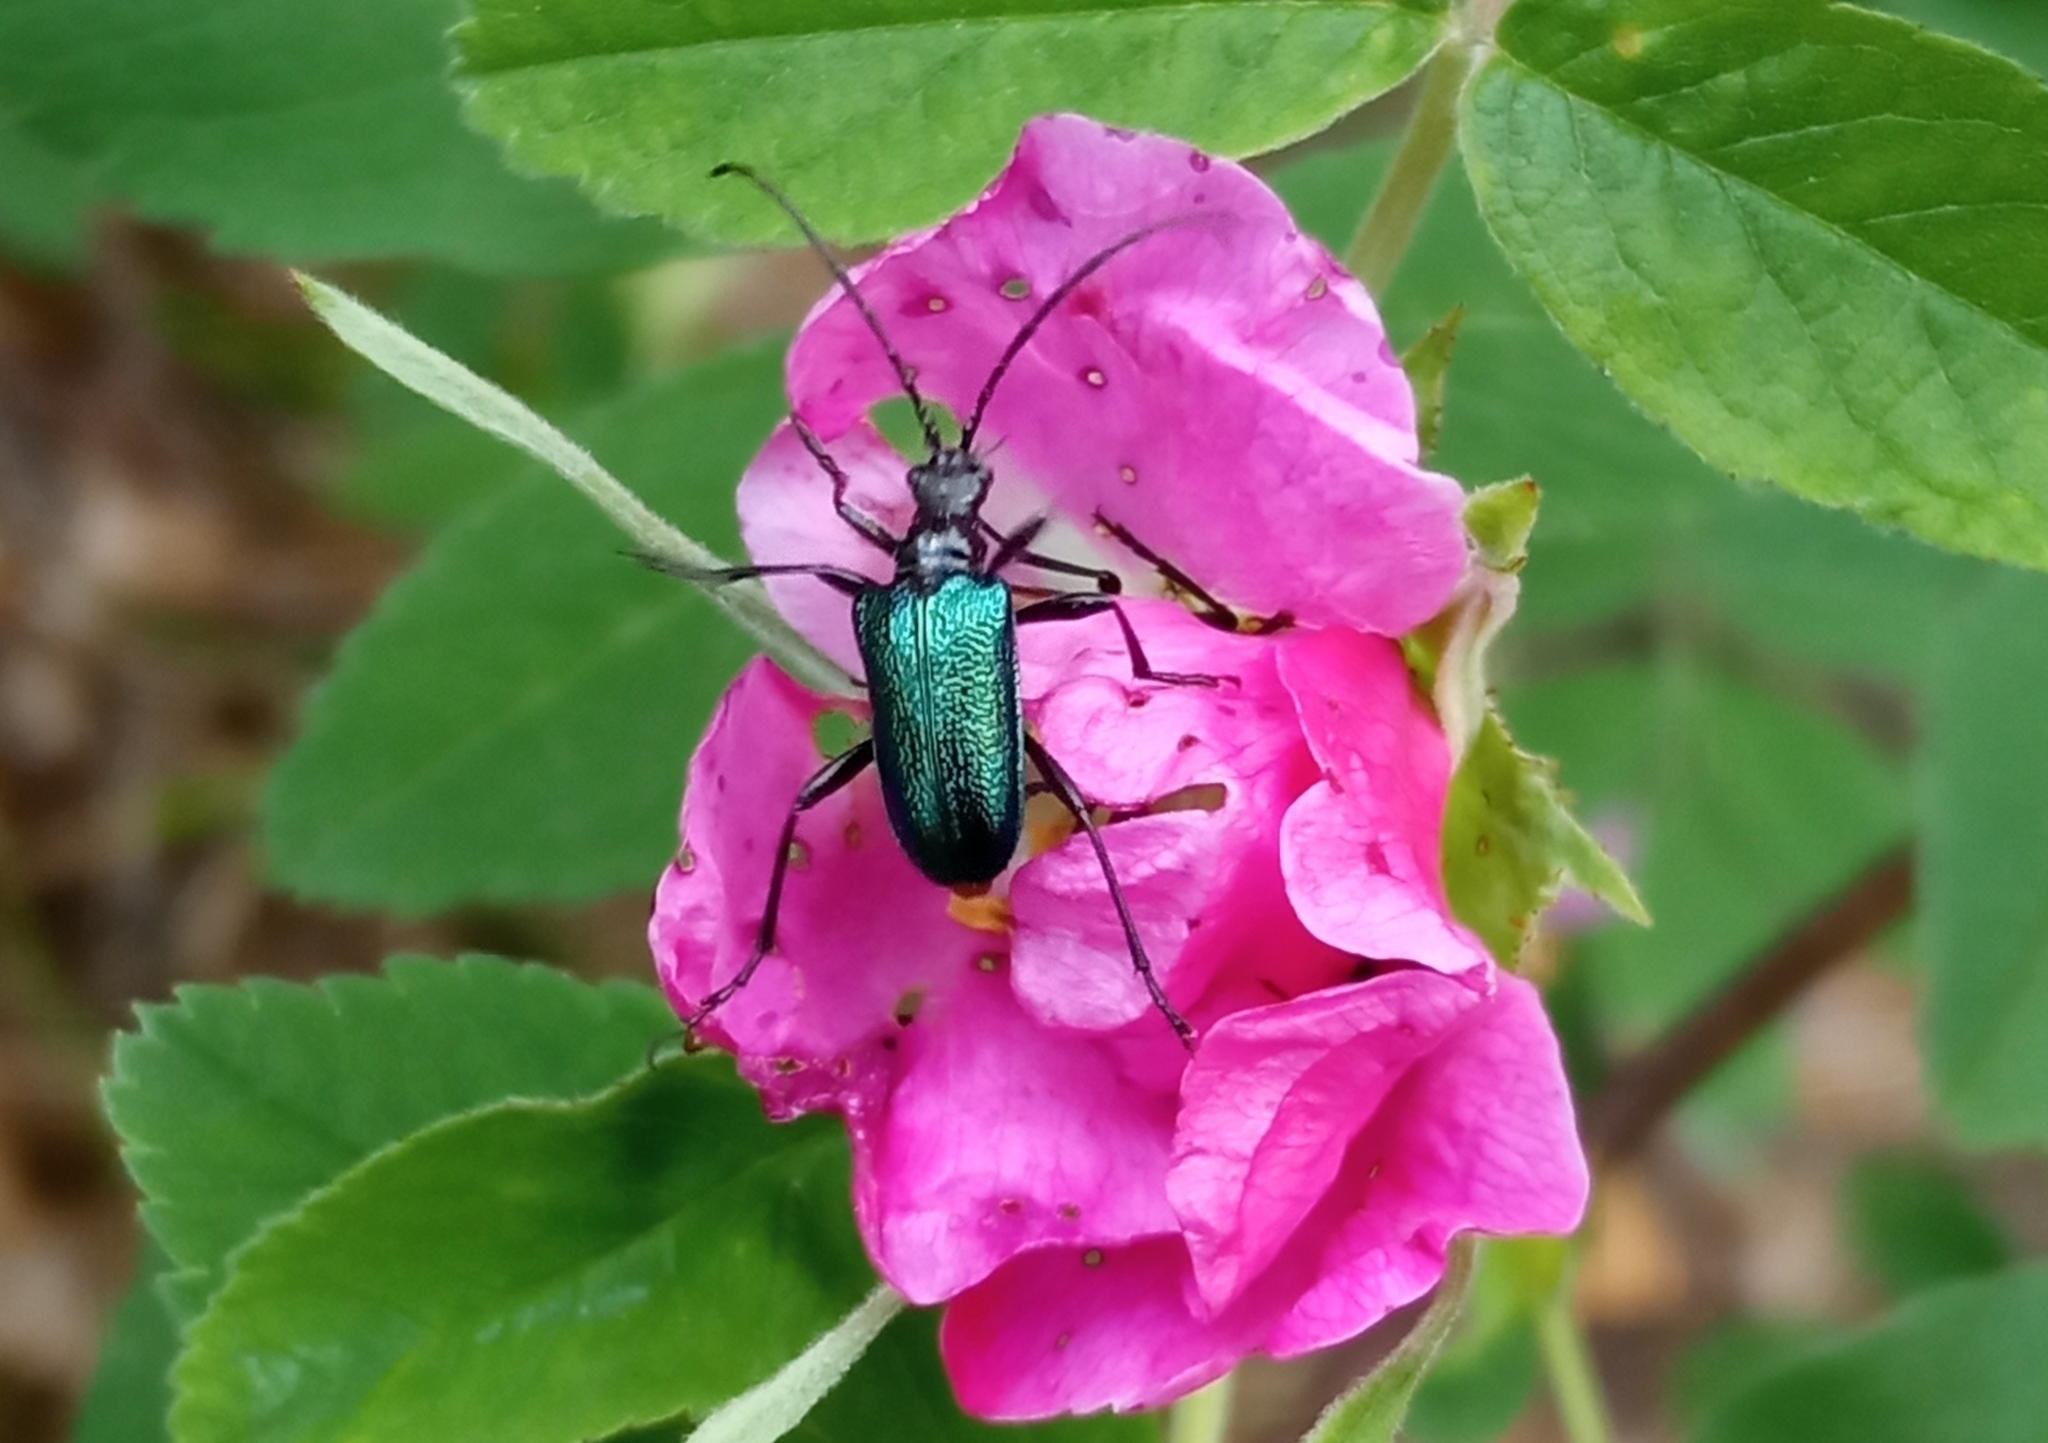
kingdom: Animalia
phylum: Arthropoda
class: Insecta
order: Coleoptera
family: Cerambycidae
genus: Gaurotes
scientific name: Gaurotes virginea
